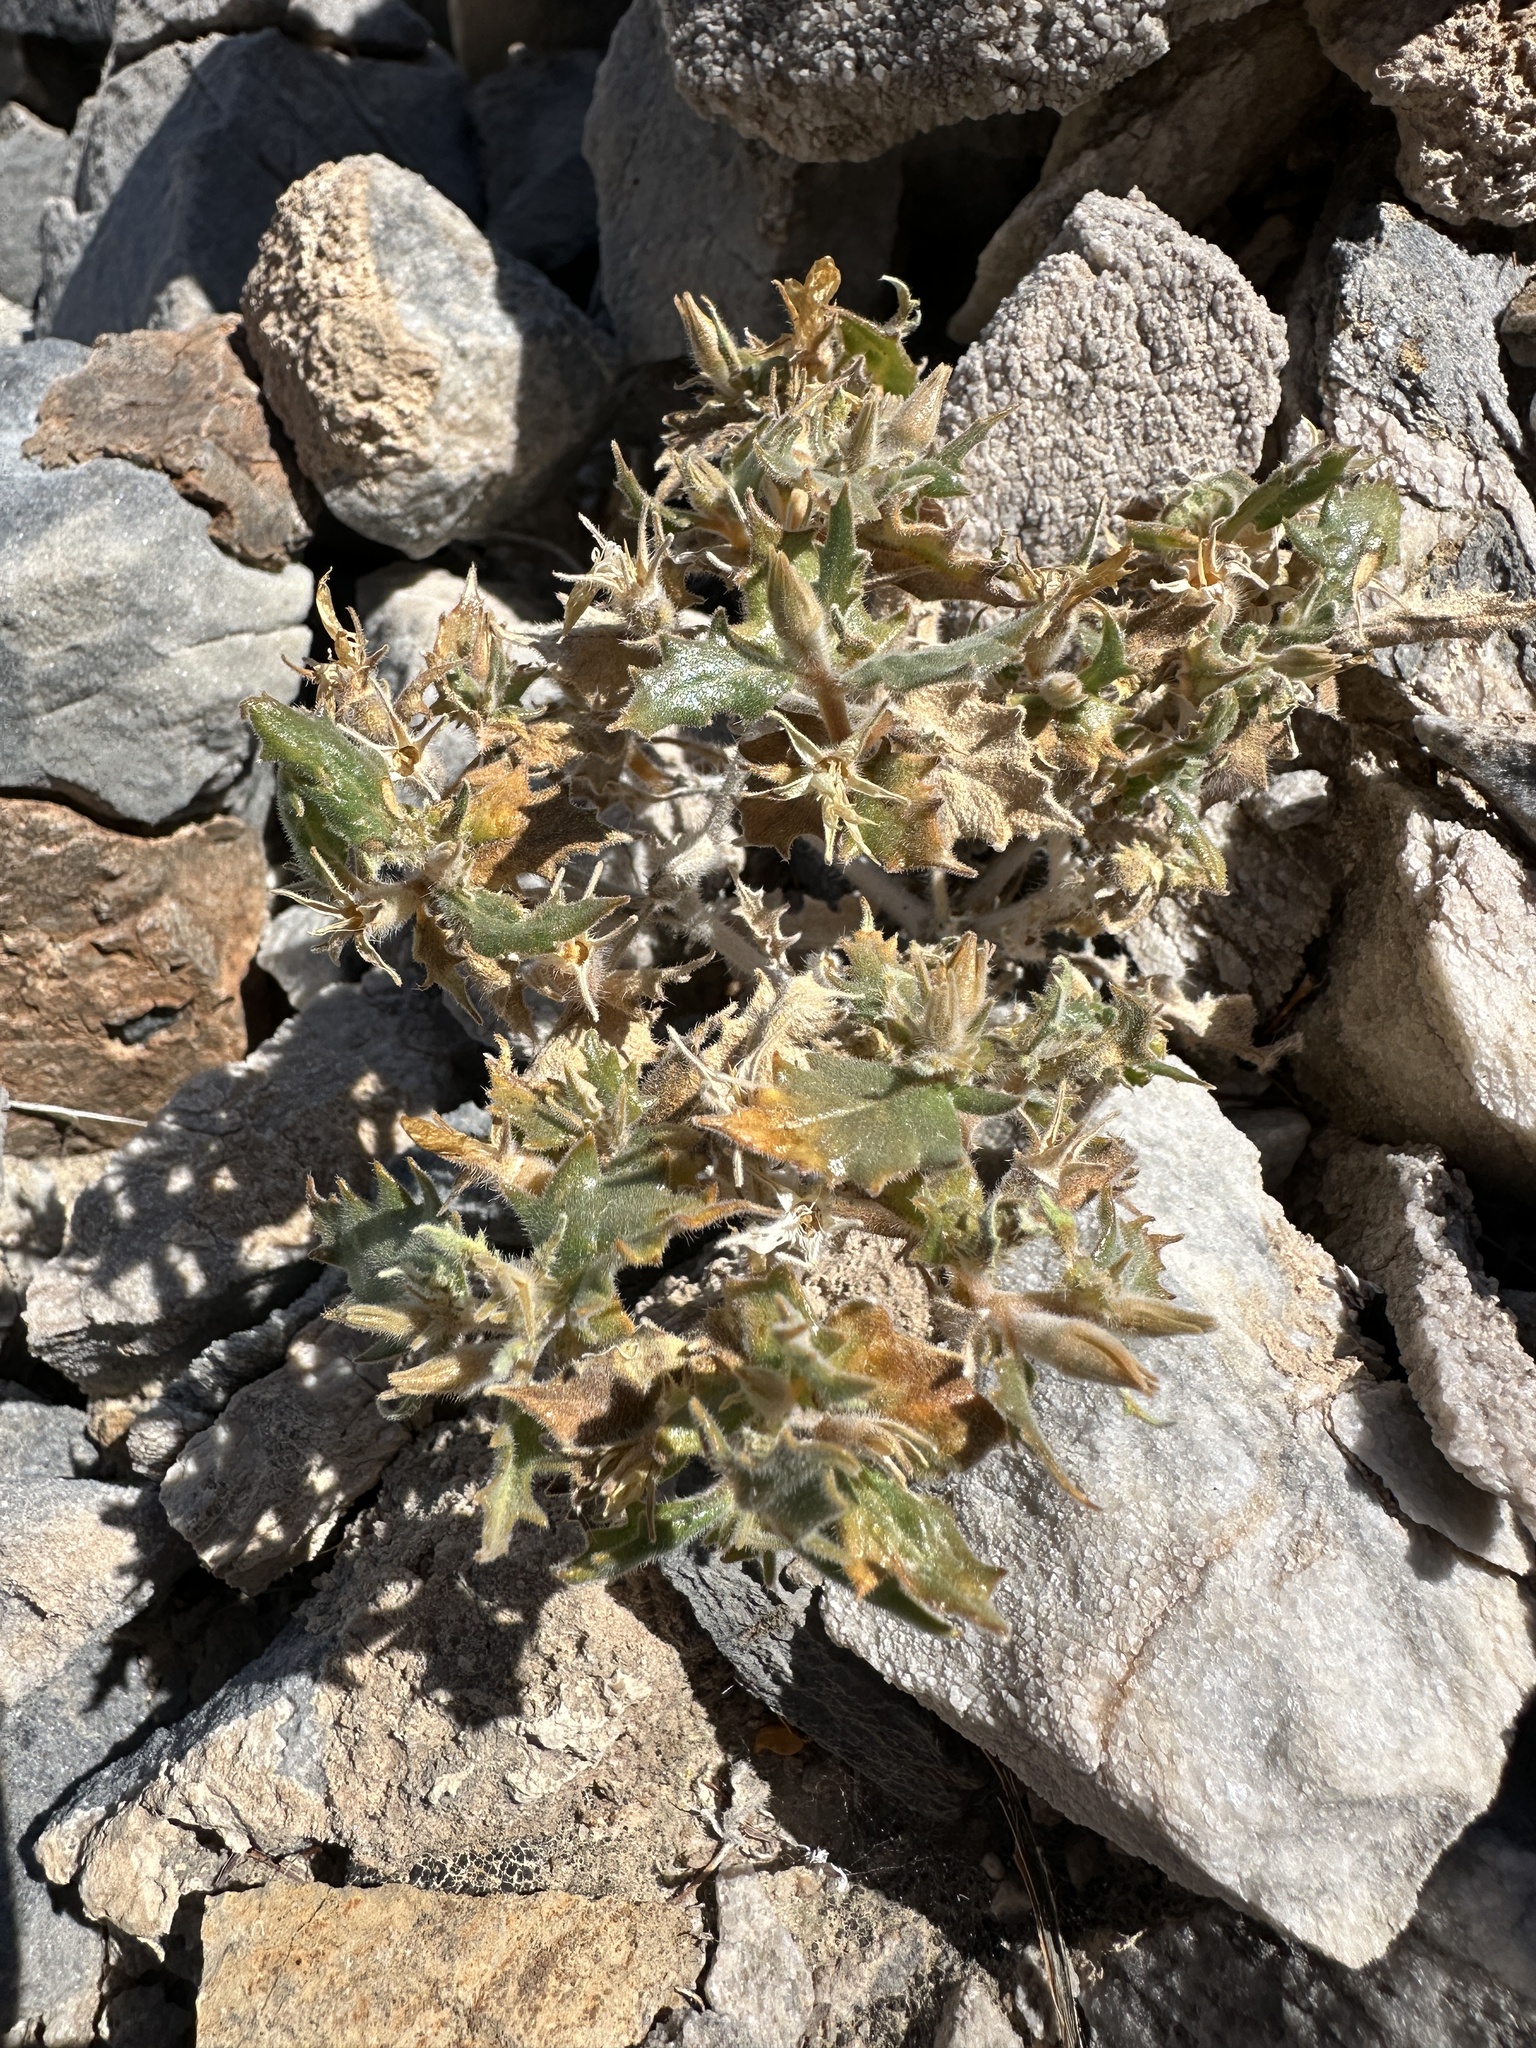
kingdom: Plantae
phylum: Tracheophyta
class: Magnoliopsida
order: Cornales
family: Loasaceae
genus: Mentzelia
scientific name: Mentzelia reflexa
